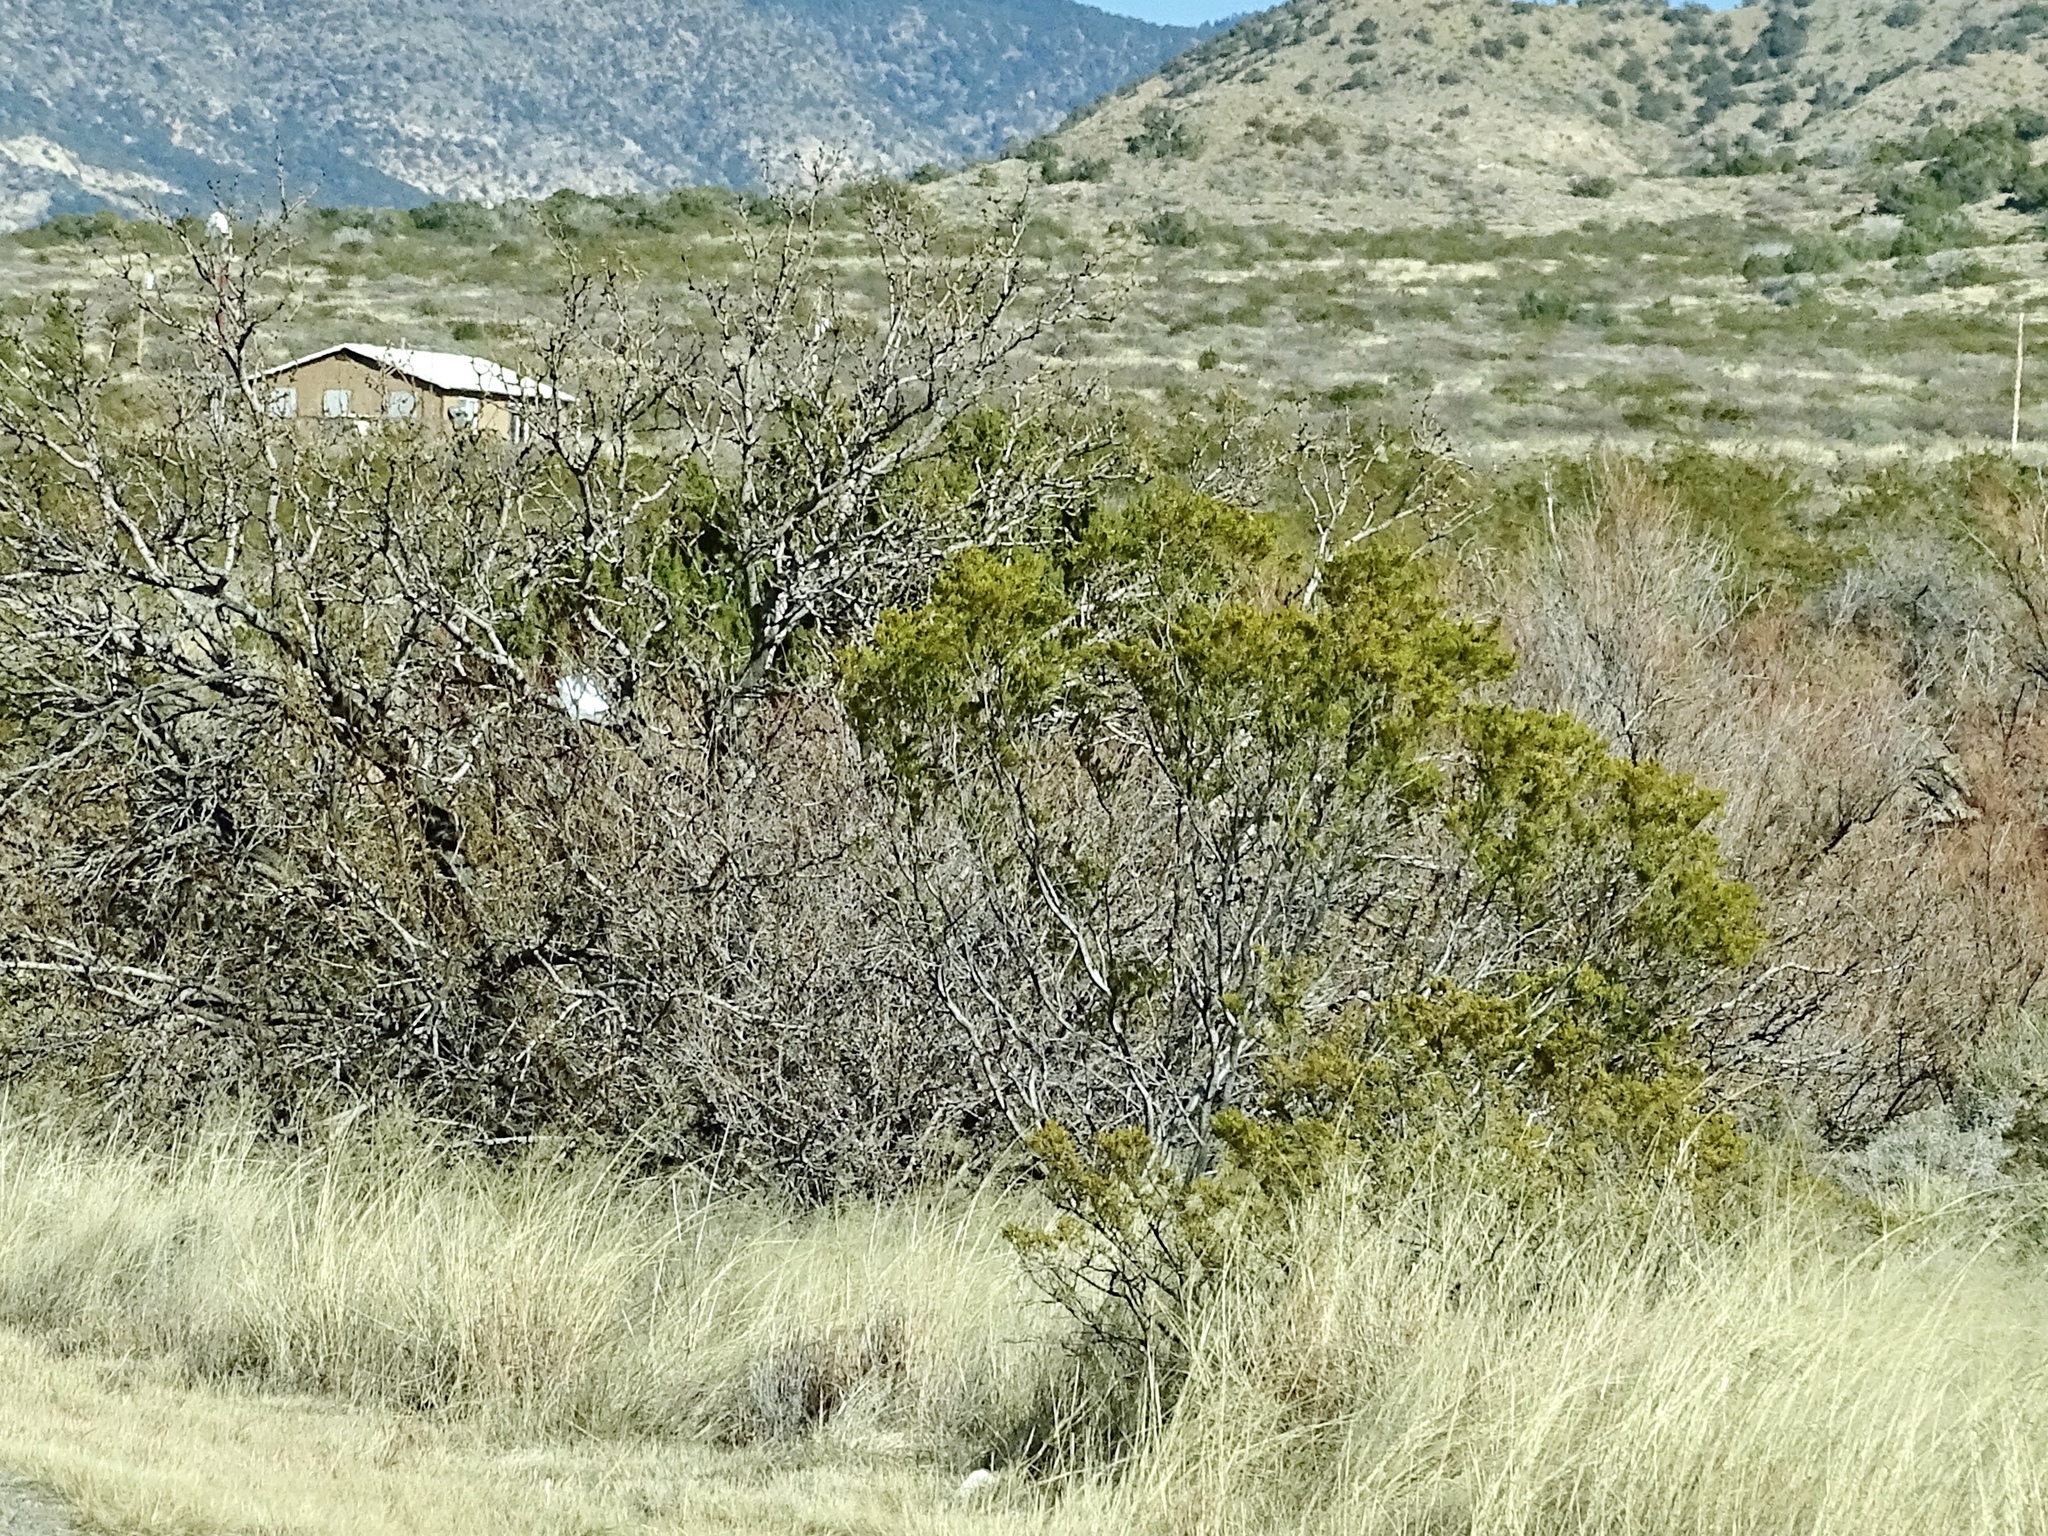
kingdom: Plantae
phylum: Tracheophyta
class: Magnoliopsida
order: Zygophyllales
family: Zygophyllaceae
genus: Larrea
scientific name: Larrea tridentata
